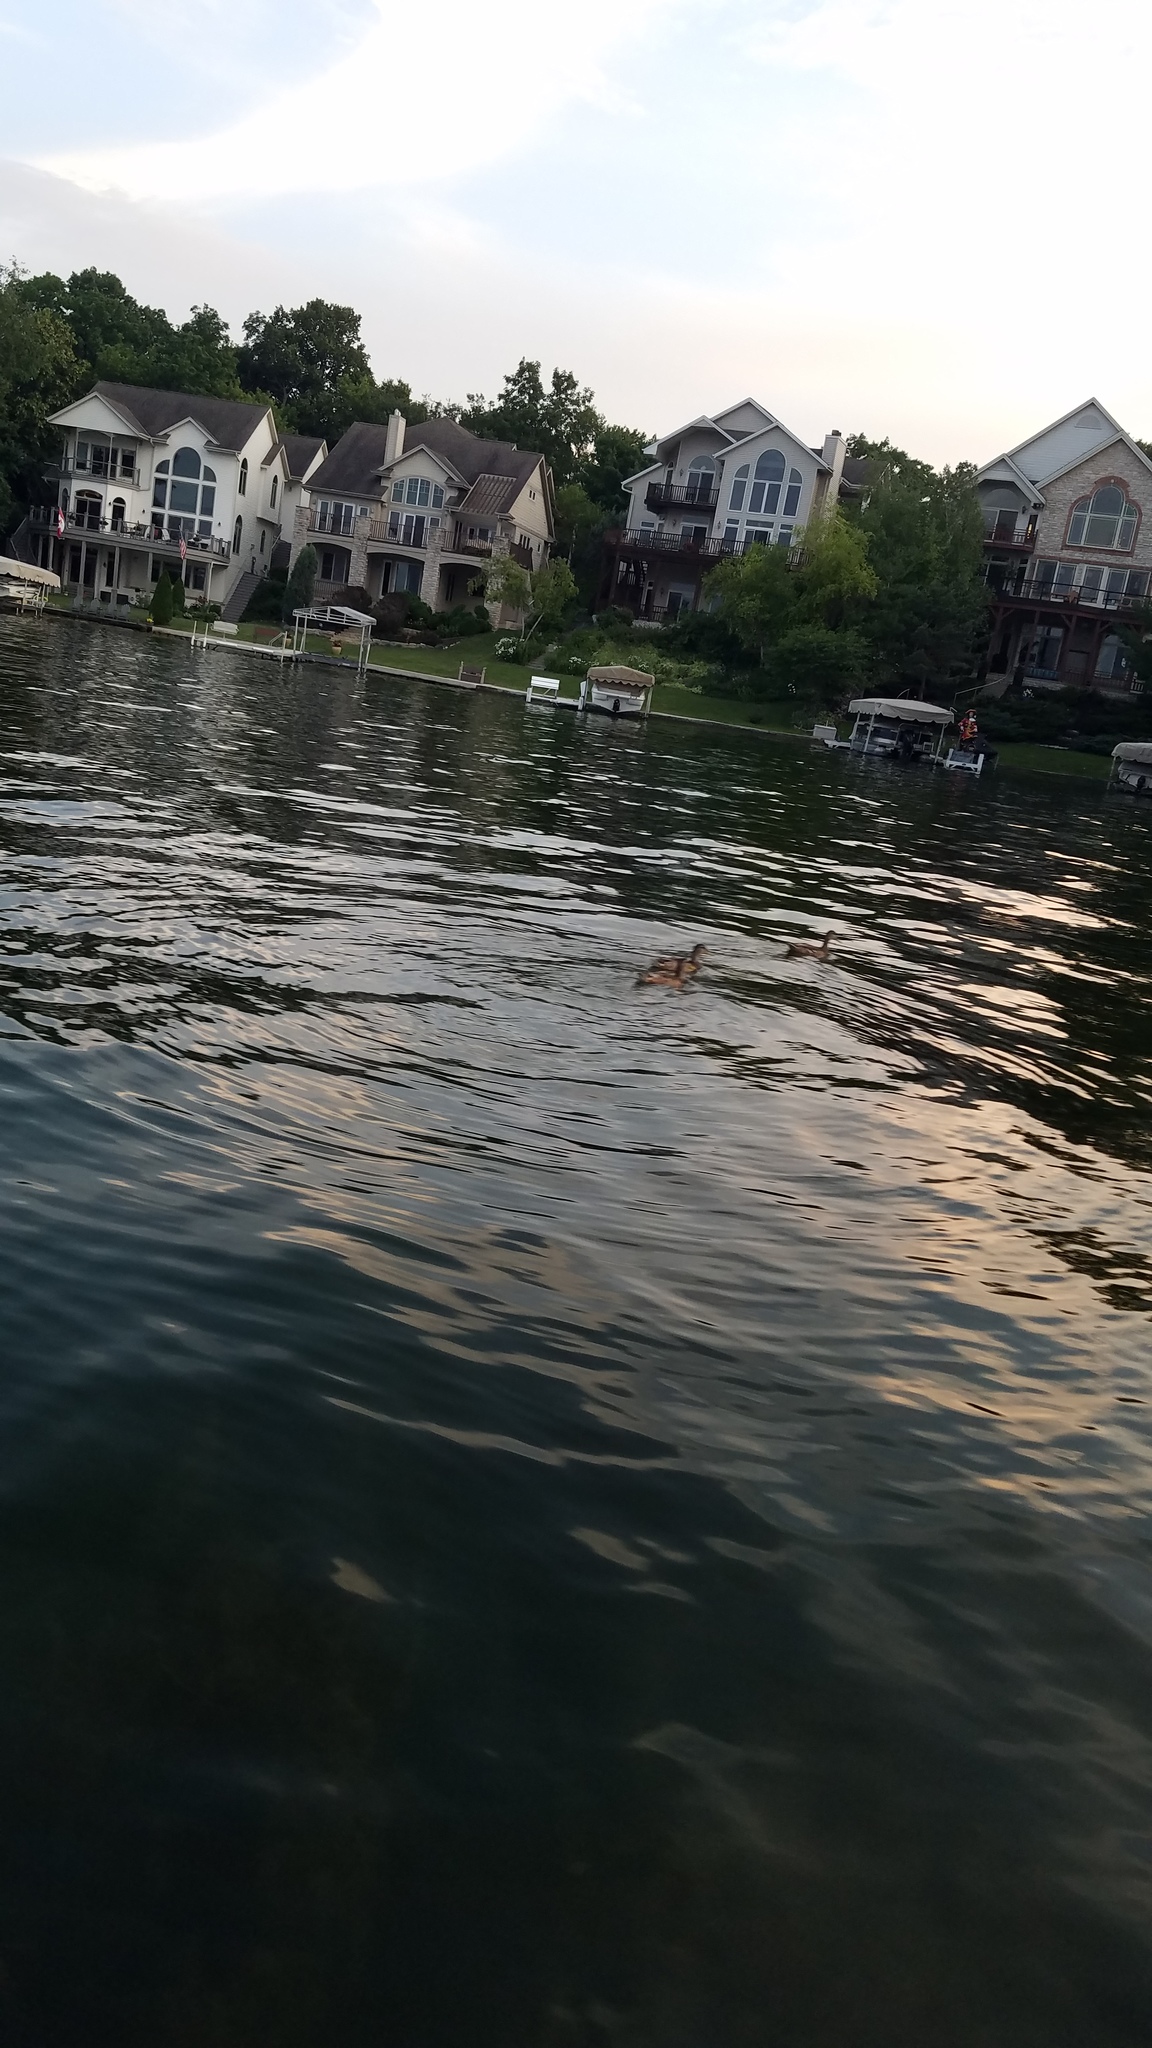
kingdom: Animalia
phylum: Chordata
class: Aves
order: Anseriformes
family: Anatidae
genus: Anas
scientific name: Anas platyrhynchos
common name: Mallard
